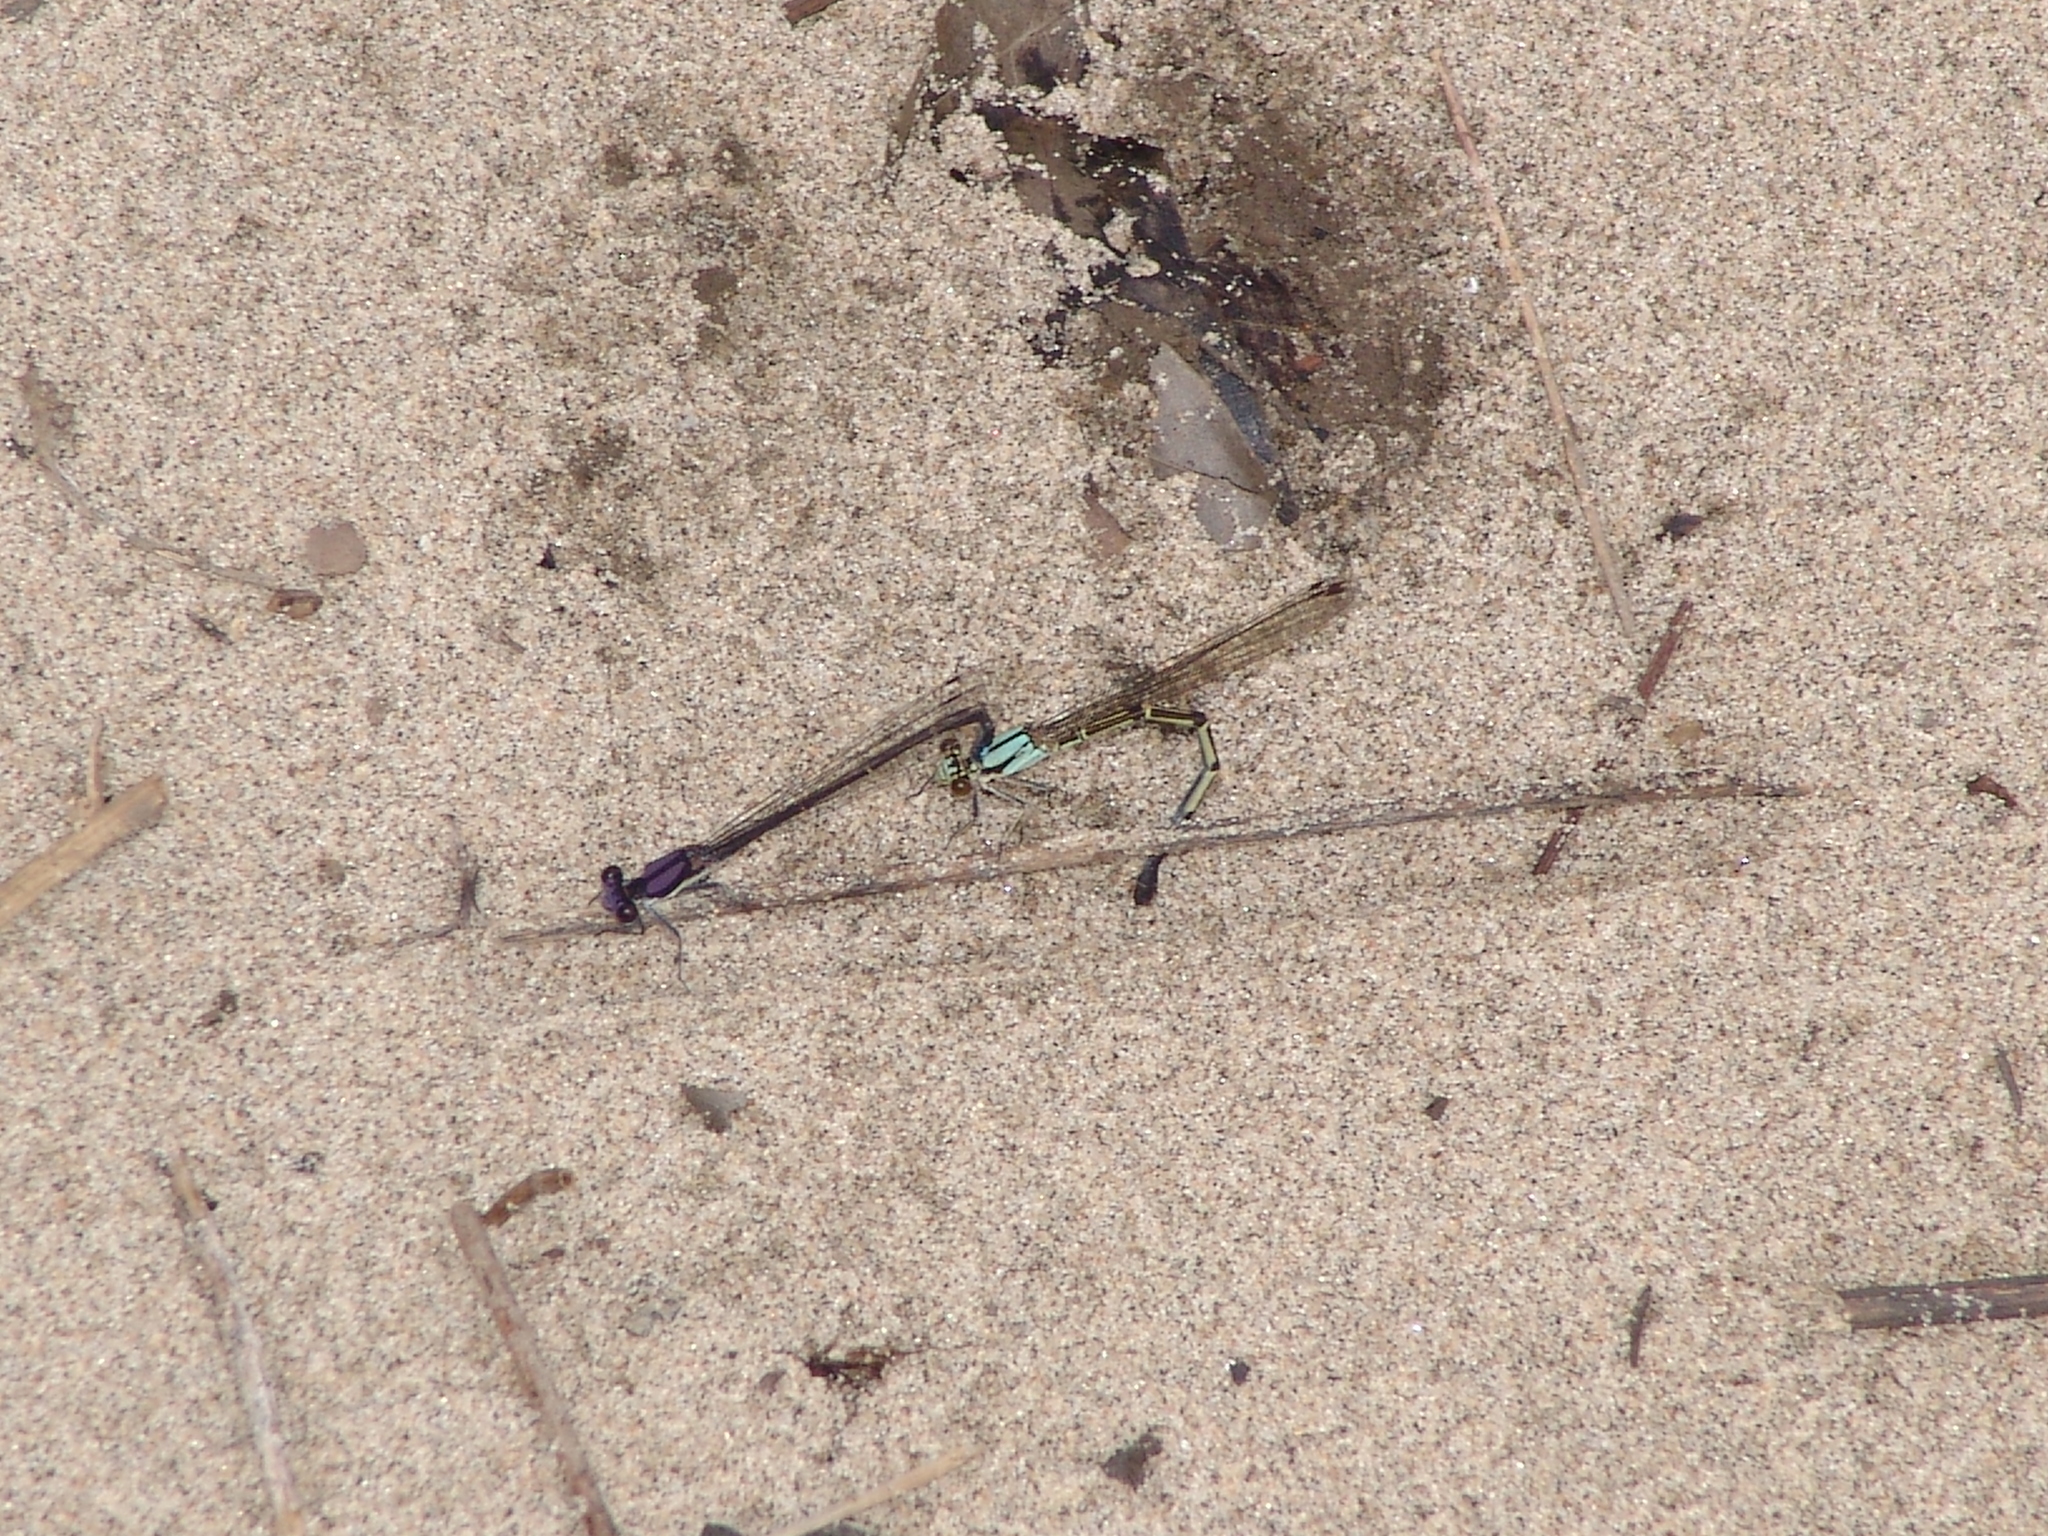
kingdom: Animalia
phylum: Arthropoda
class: Insecta
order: Odonata
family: Coenagrionidae
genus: Argia
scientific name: Argia tibialis
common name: Blue-tipped dancer
